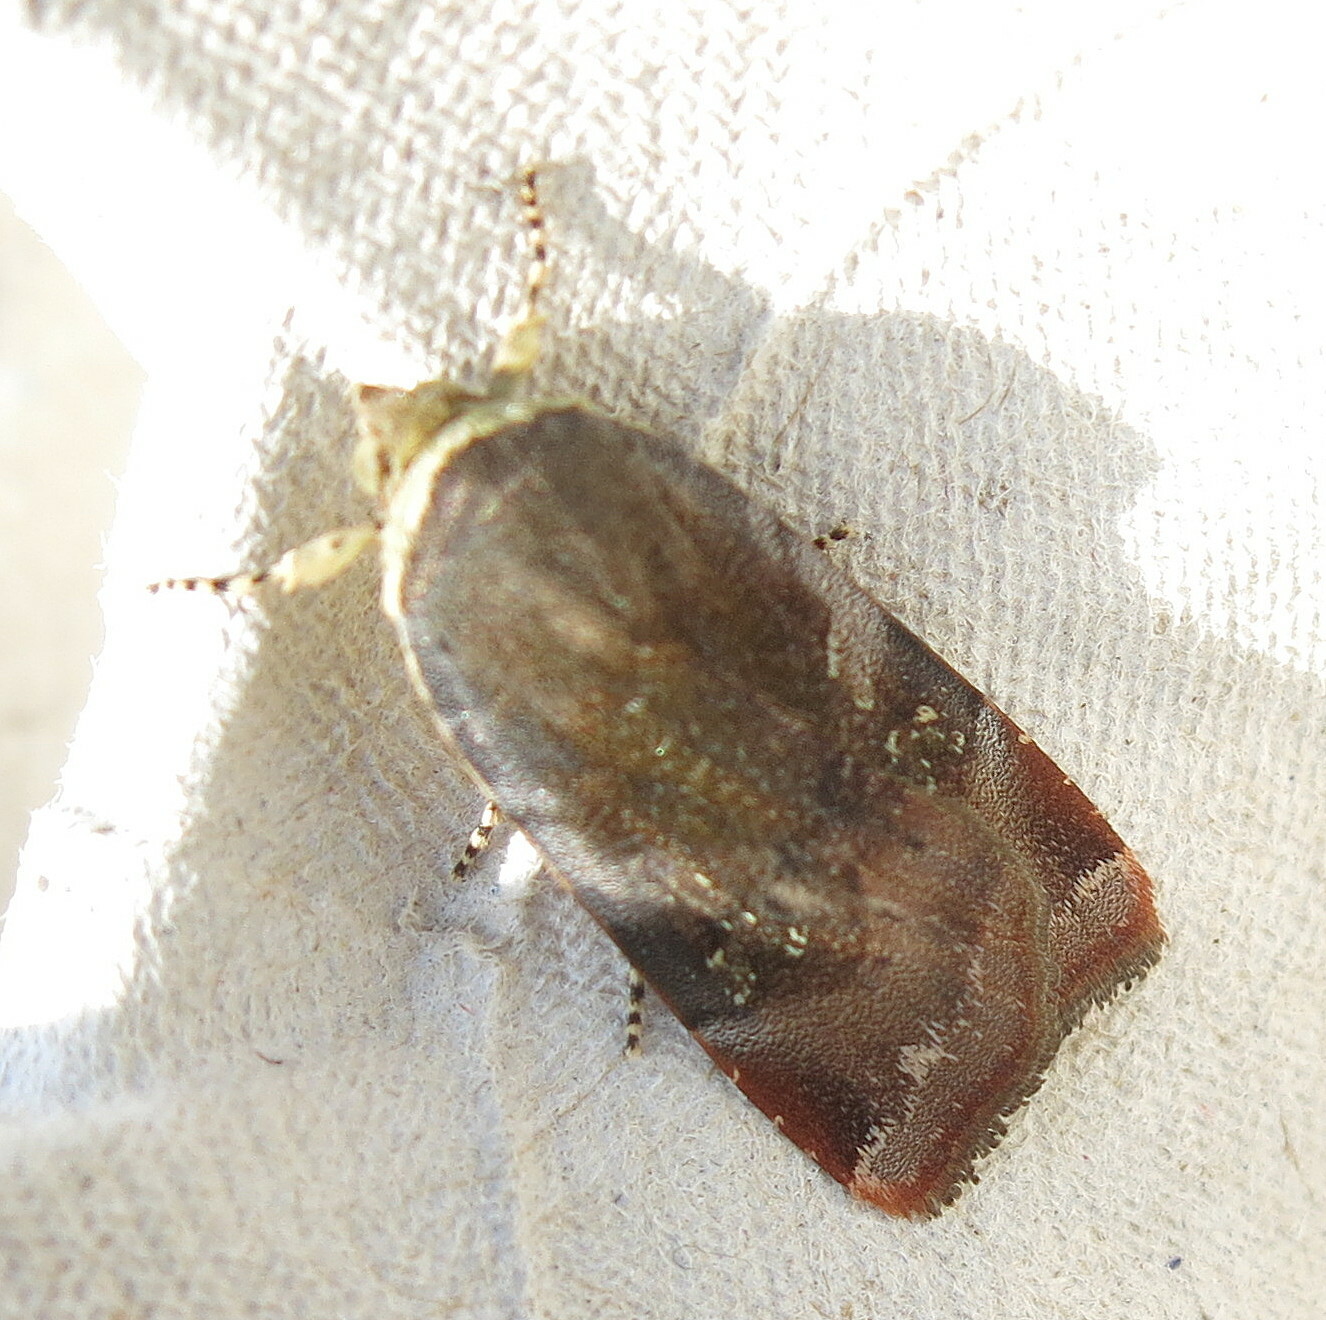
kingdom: Animalia
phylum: Arthropoda
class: Insecta
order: Lepidoptera
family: Noctuidae
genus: Noctua
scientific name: Noctua janthe
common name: Lesser broad-bordered yellow underwing
